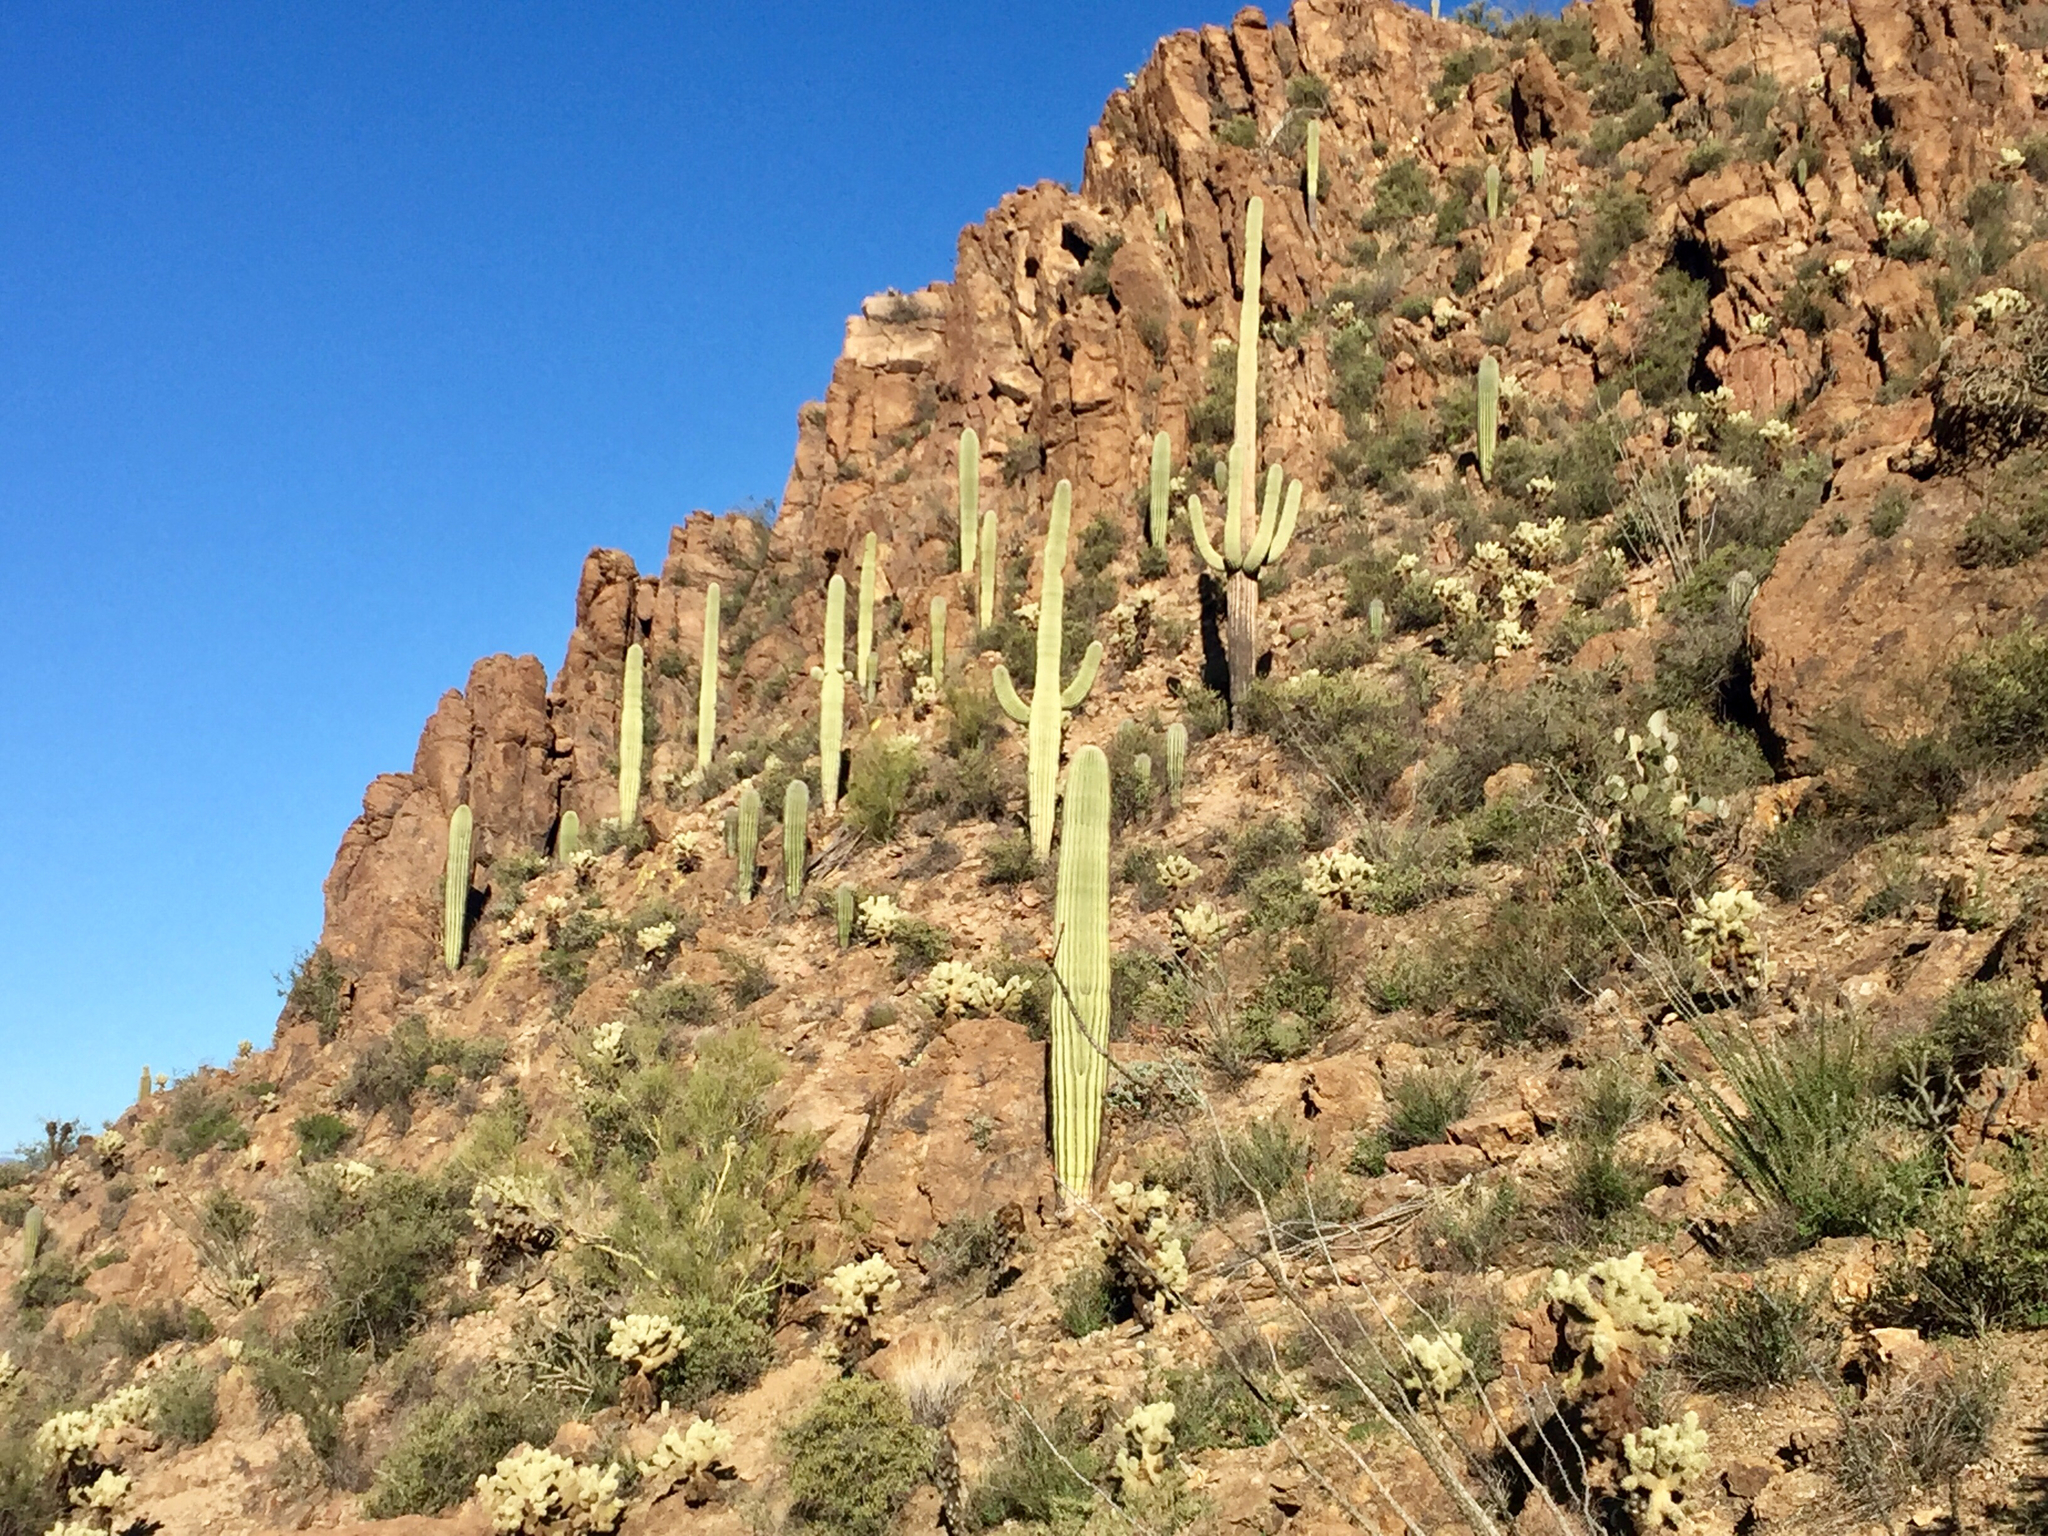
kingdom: Plantae
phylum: Tracheophyta
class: Magnoliopsida
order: Caryophyllales
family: Cactaceae
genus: Carnegiea
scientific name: Carnegiea gigantea
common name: Saguaro
